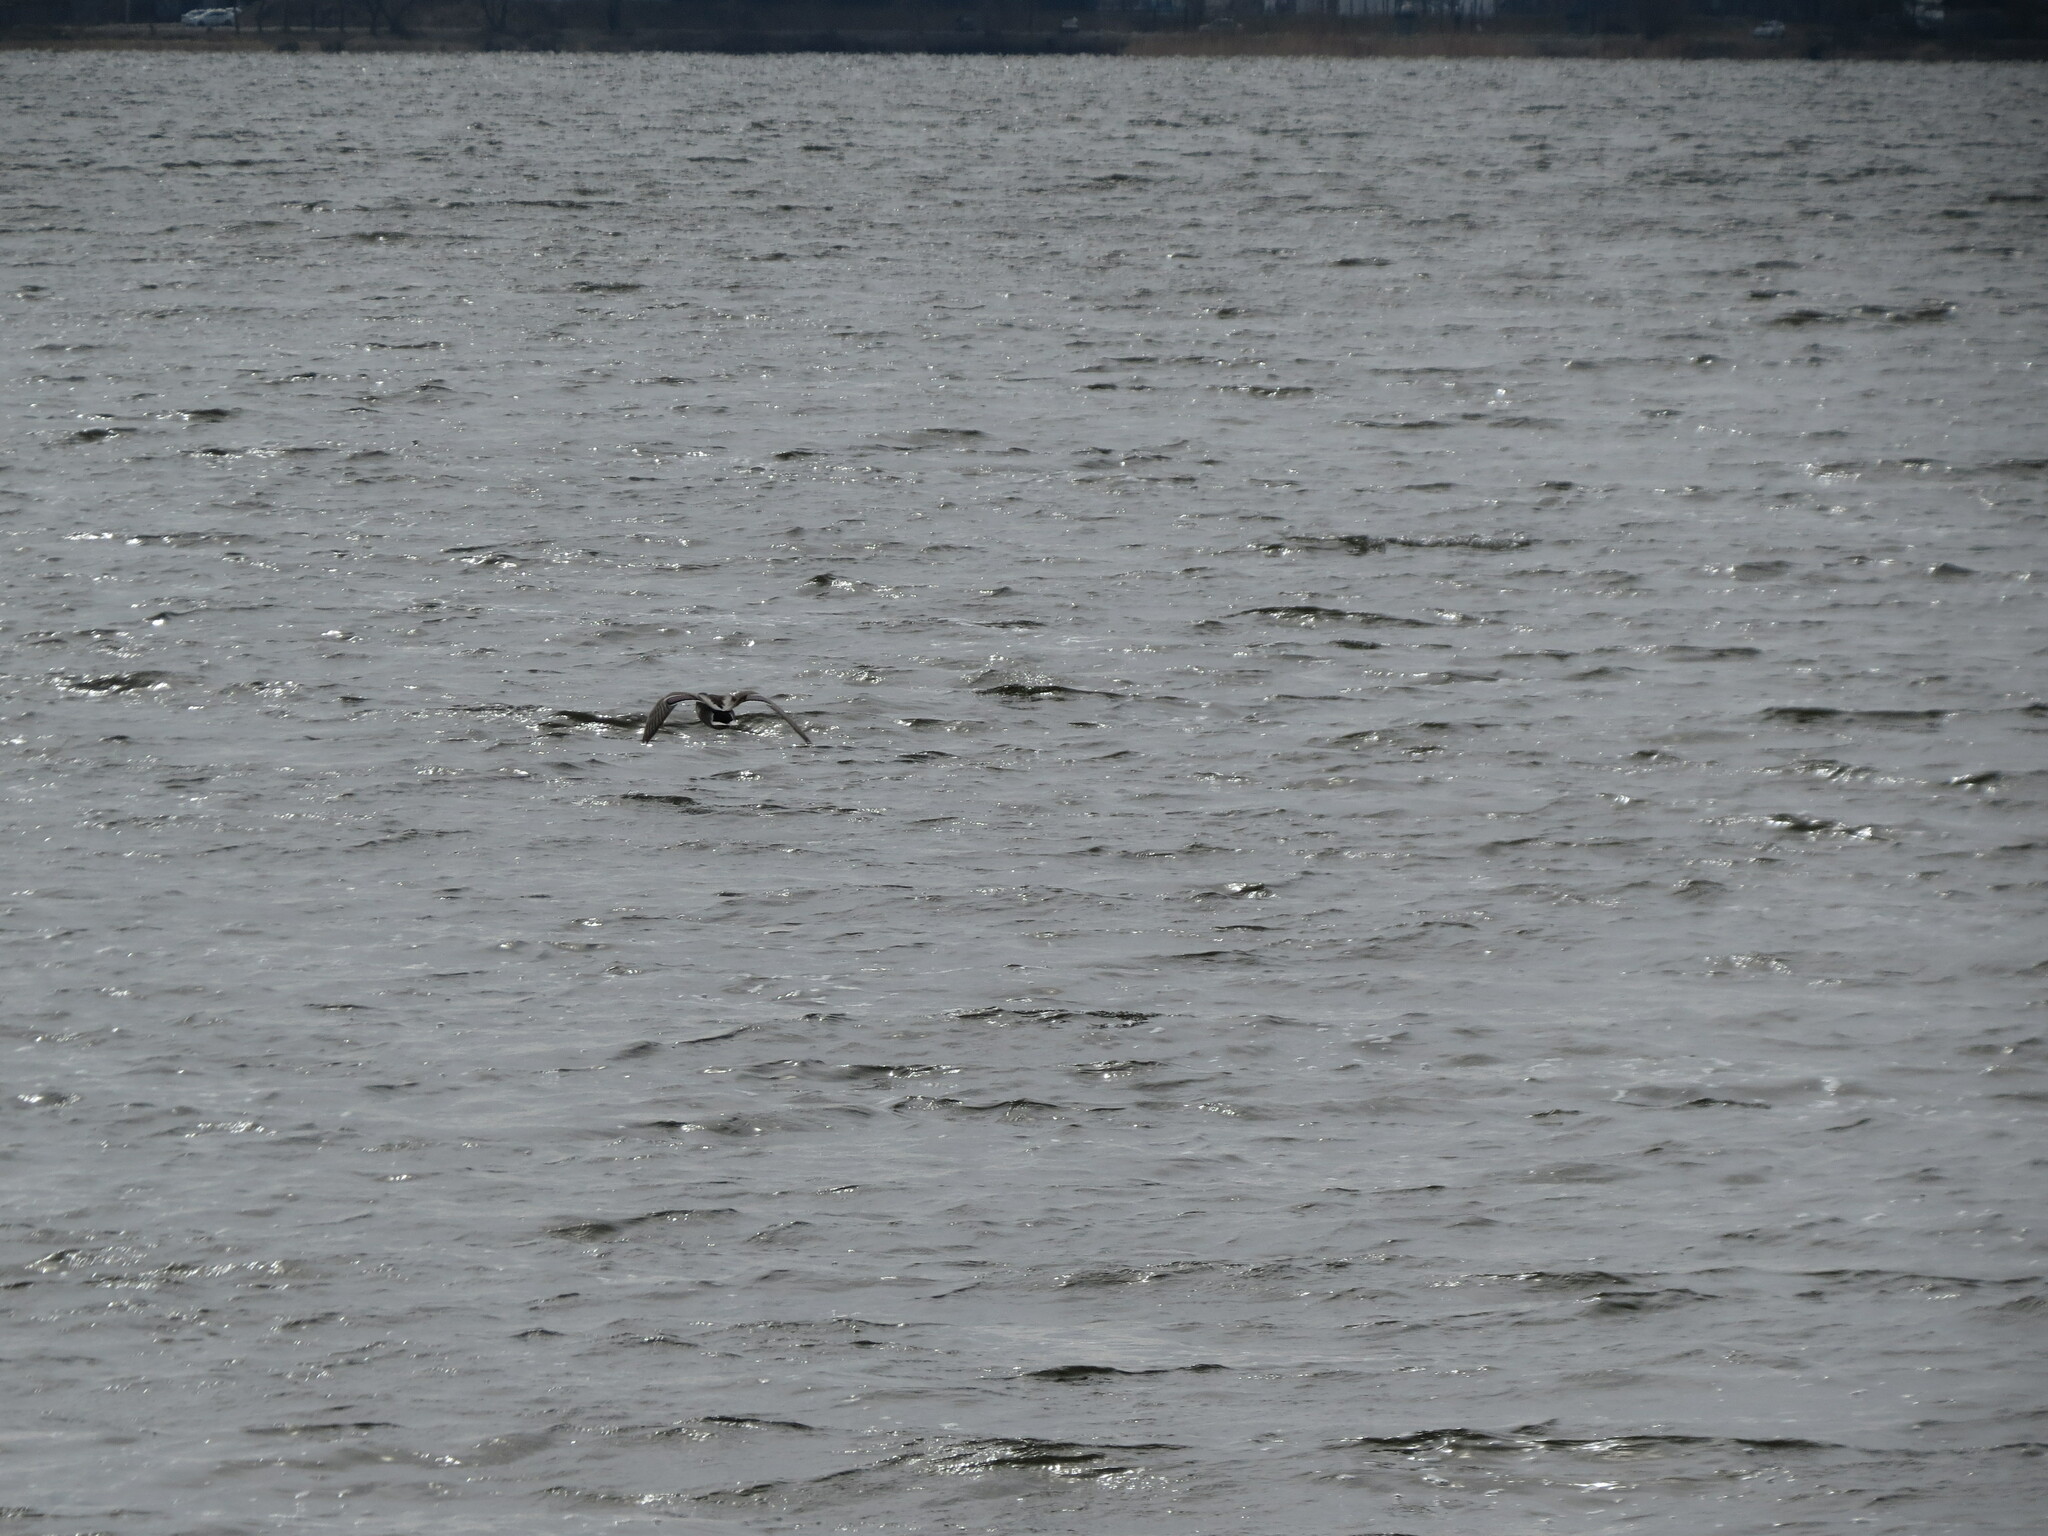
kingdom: Animalia
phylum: Chordata
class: Aves
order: Anseriformes
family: Anatidae
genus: Anas
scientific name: Anas platyrhynchos
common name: Mallard
